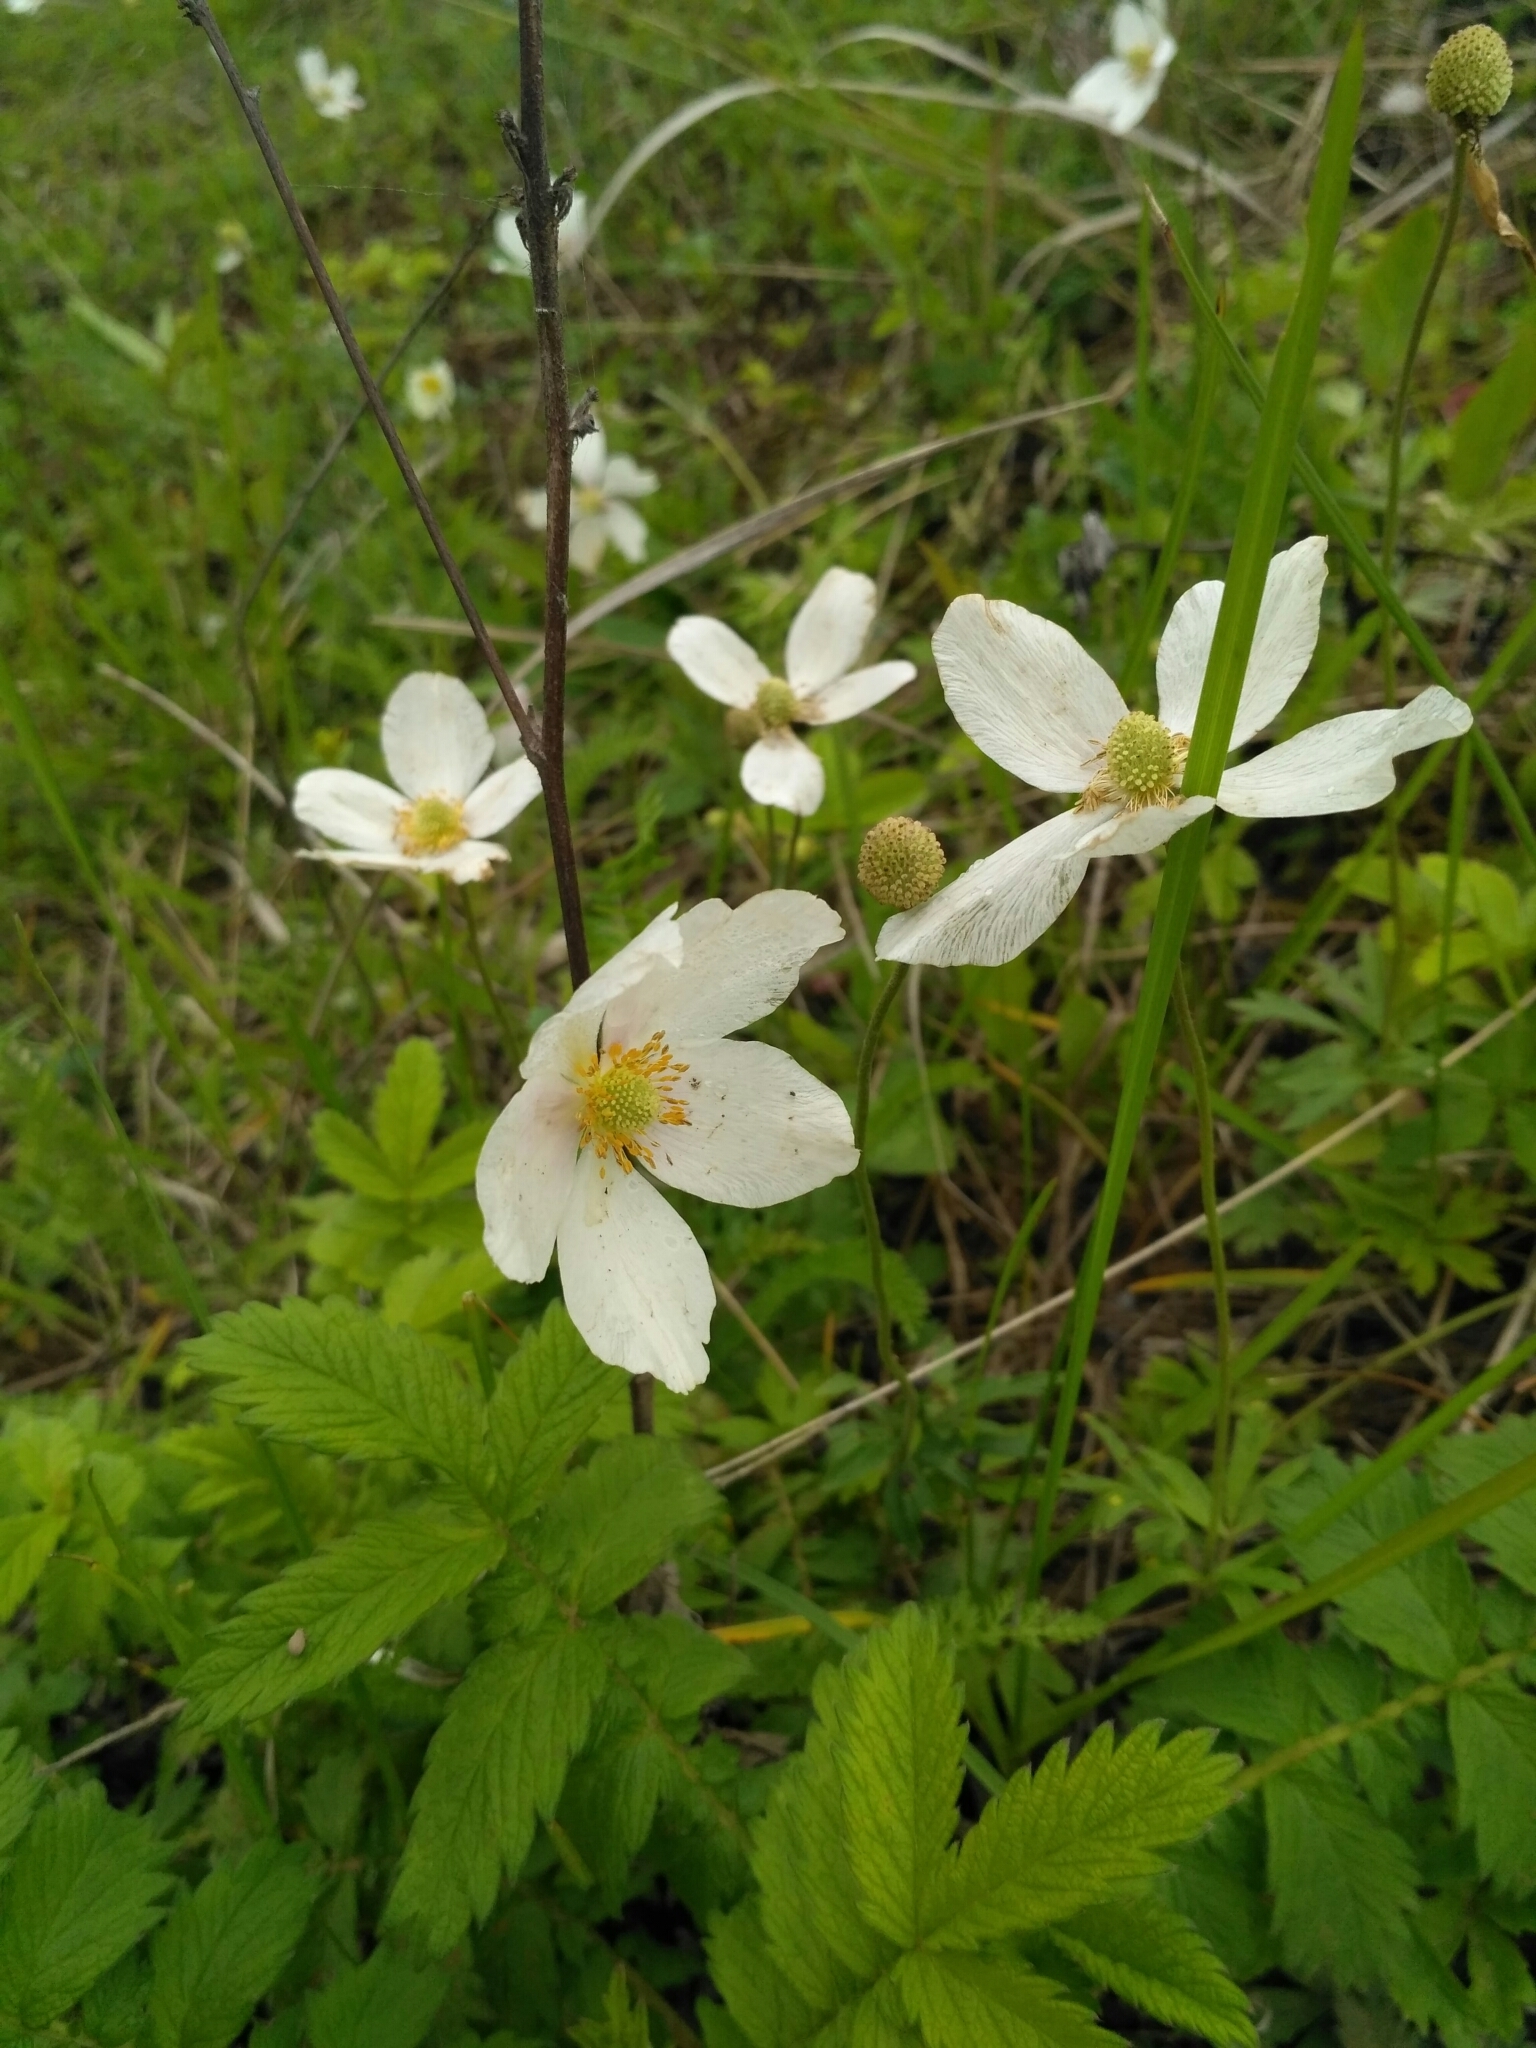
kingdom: Plantae
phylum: Tracheophyta
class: Magnoliopsida
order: Ranunculales
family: Ranunculaceae
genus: Anemone
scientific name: Anemone sylvestris
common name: Snowdrop anemone
